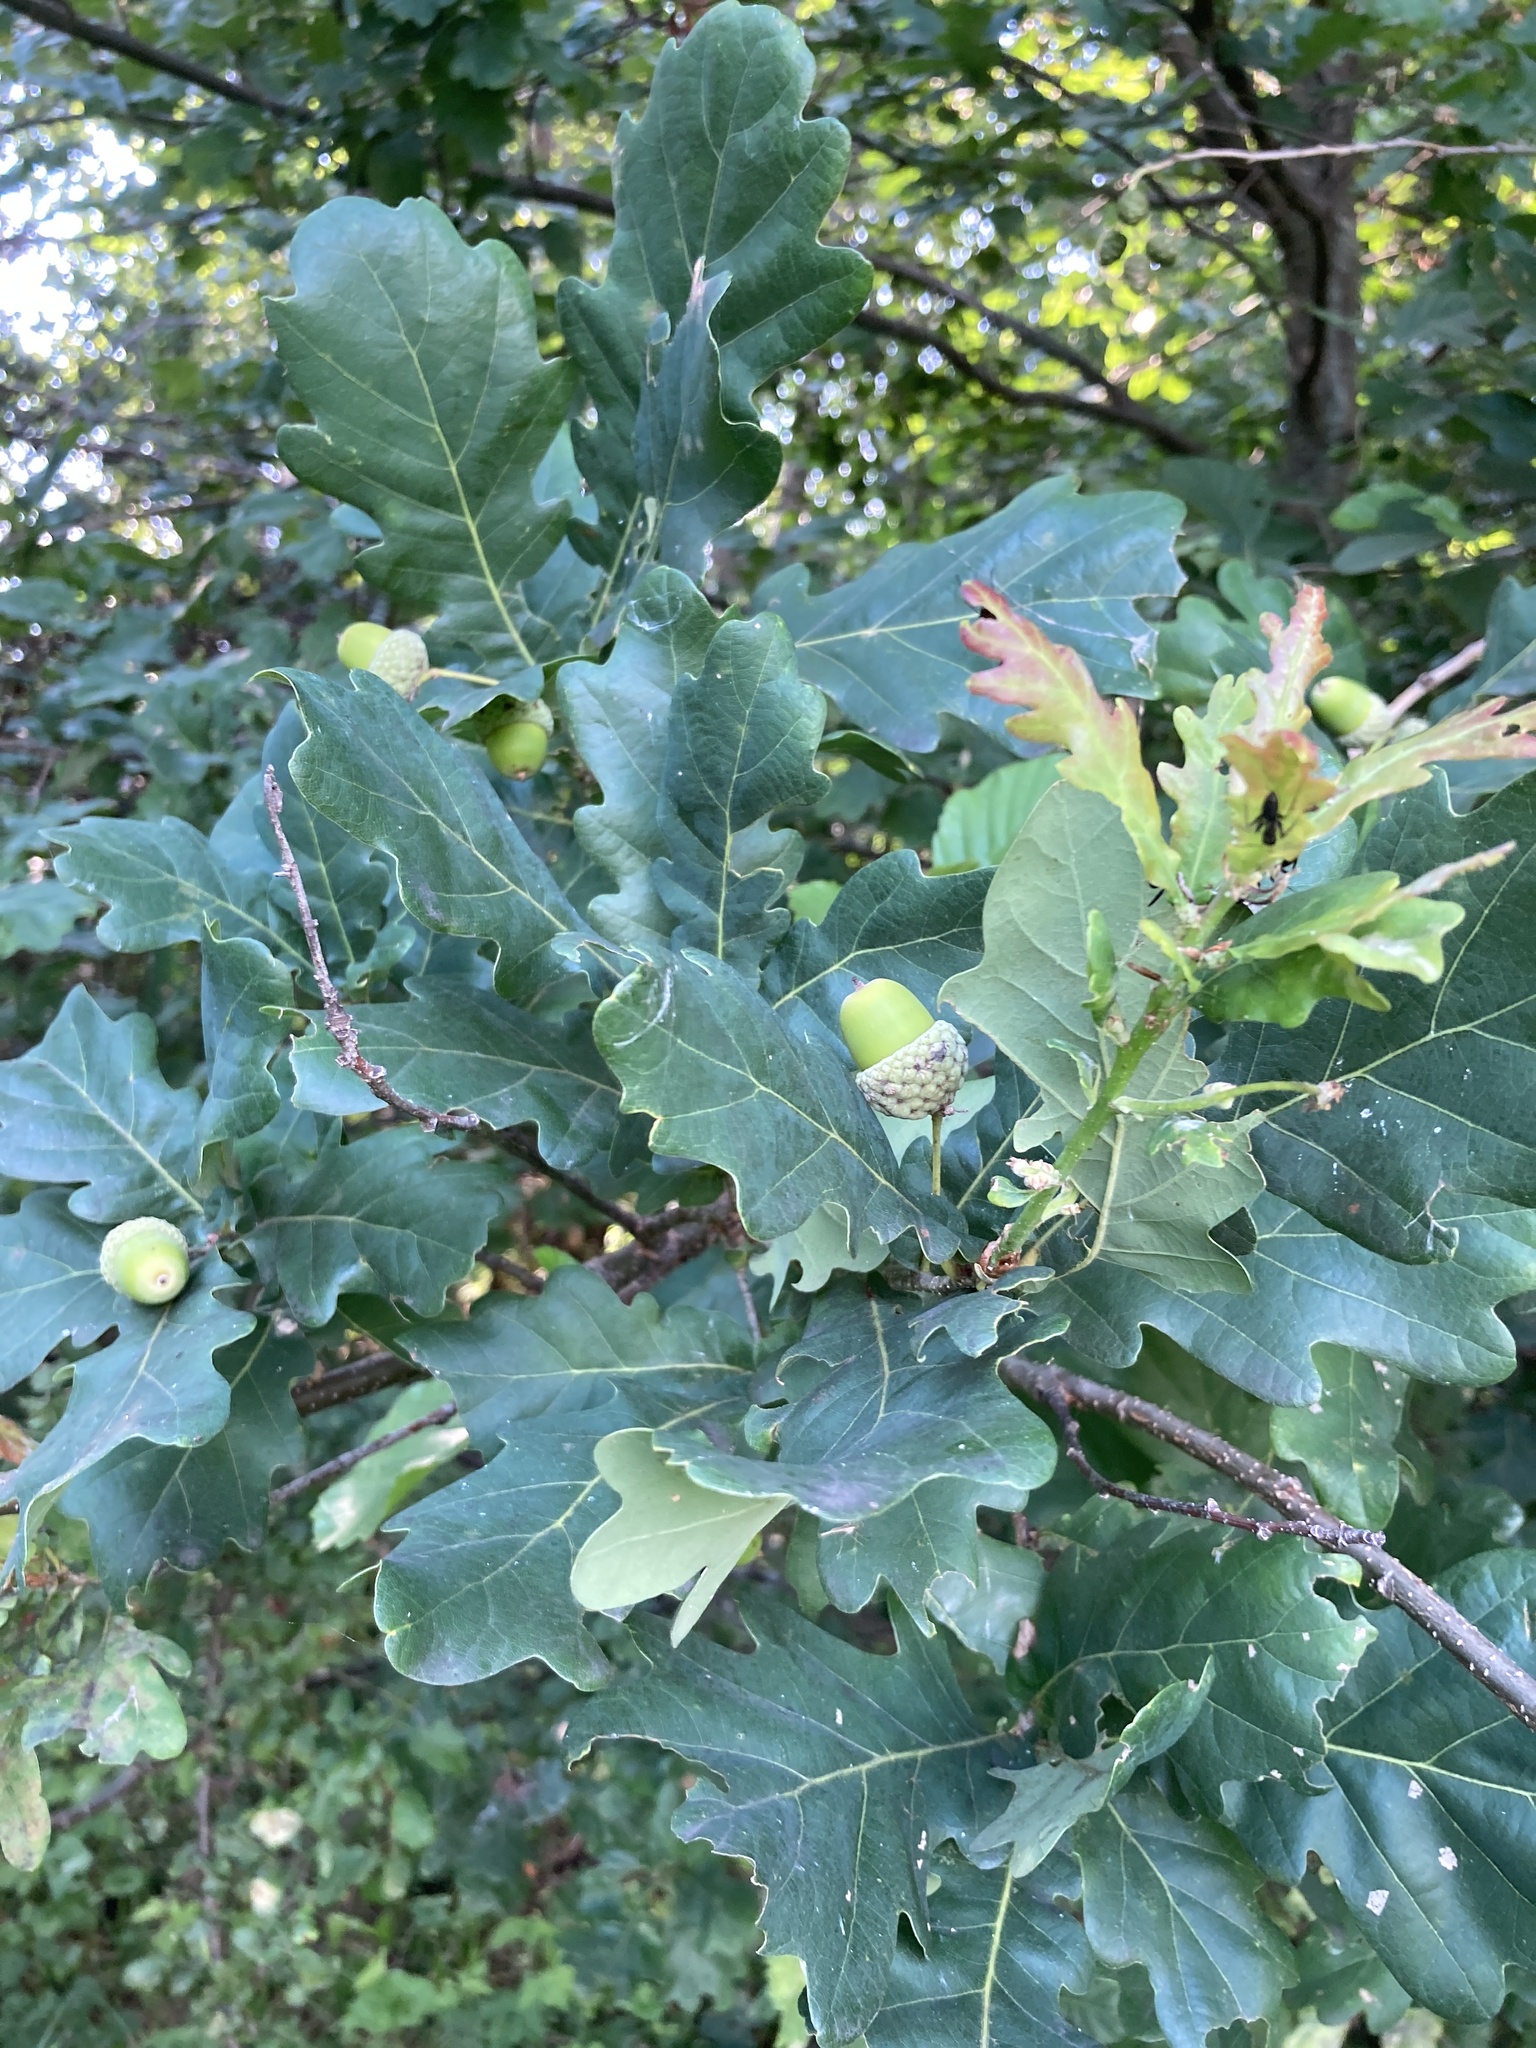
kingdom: Plantae
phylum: Tracheophyta
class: Magnoliopsida
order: Fagales
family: Fagaceae
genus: Quercus
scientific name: Quercus robur
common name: Pedunculate oak
